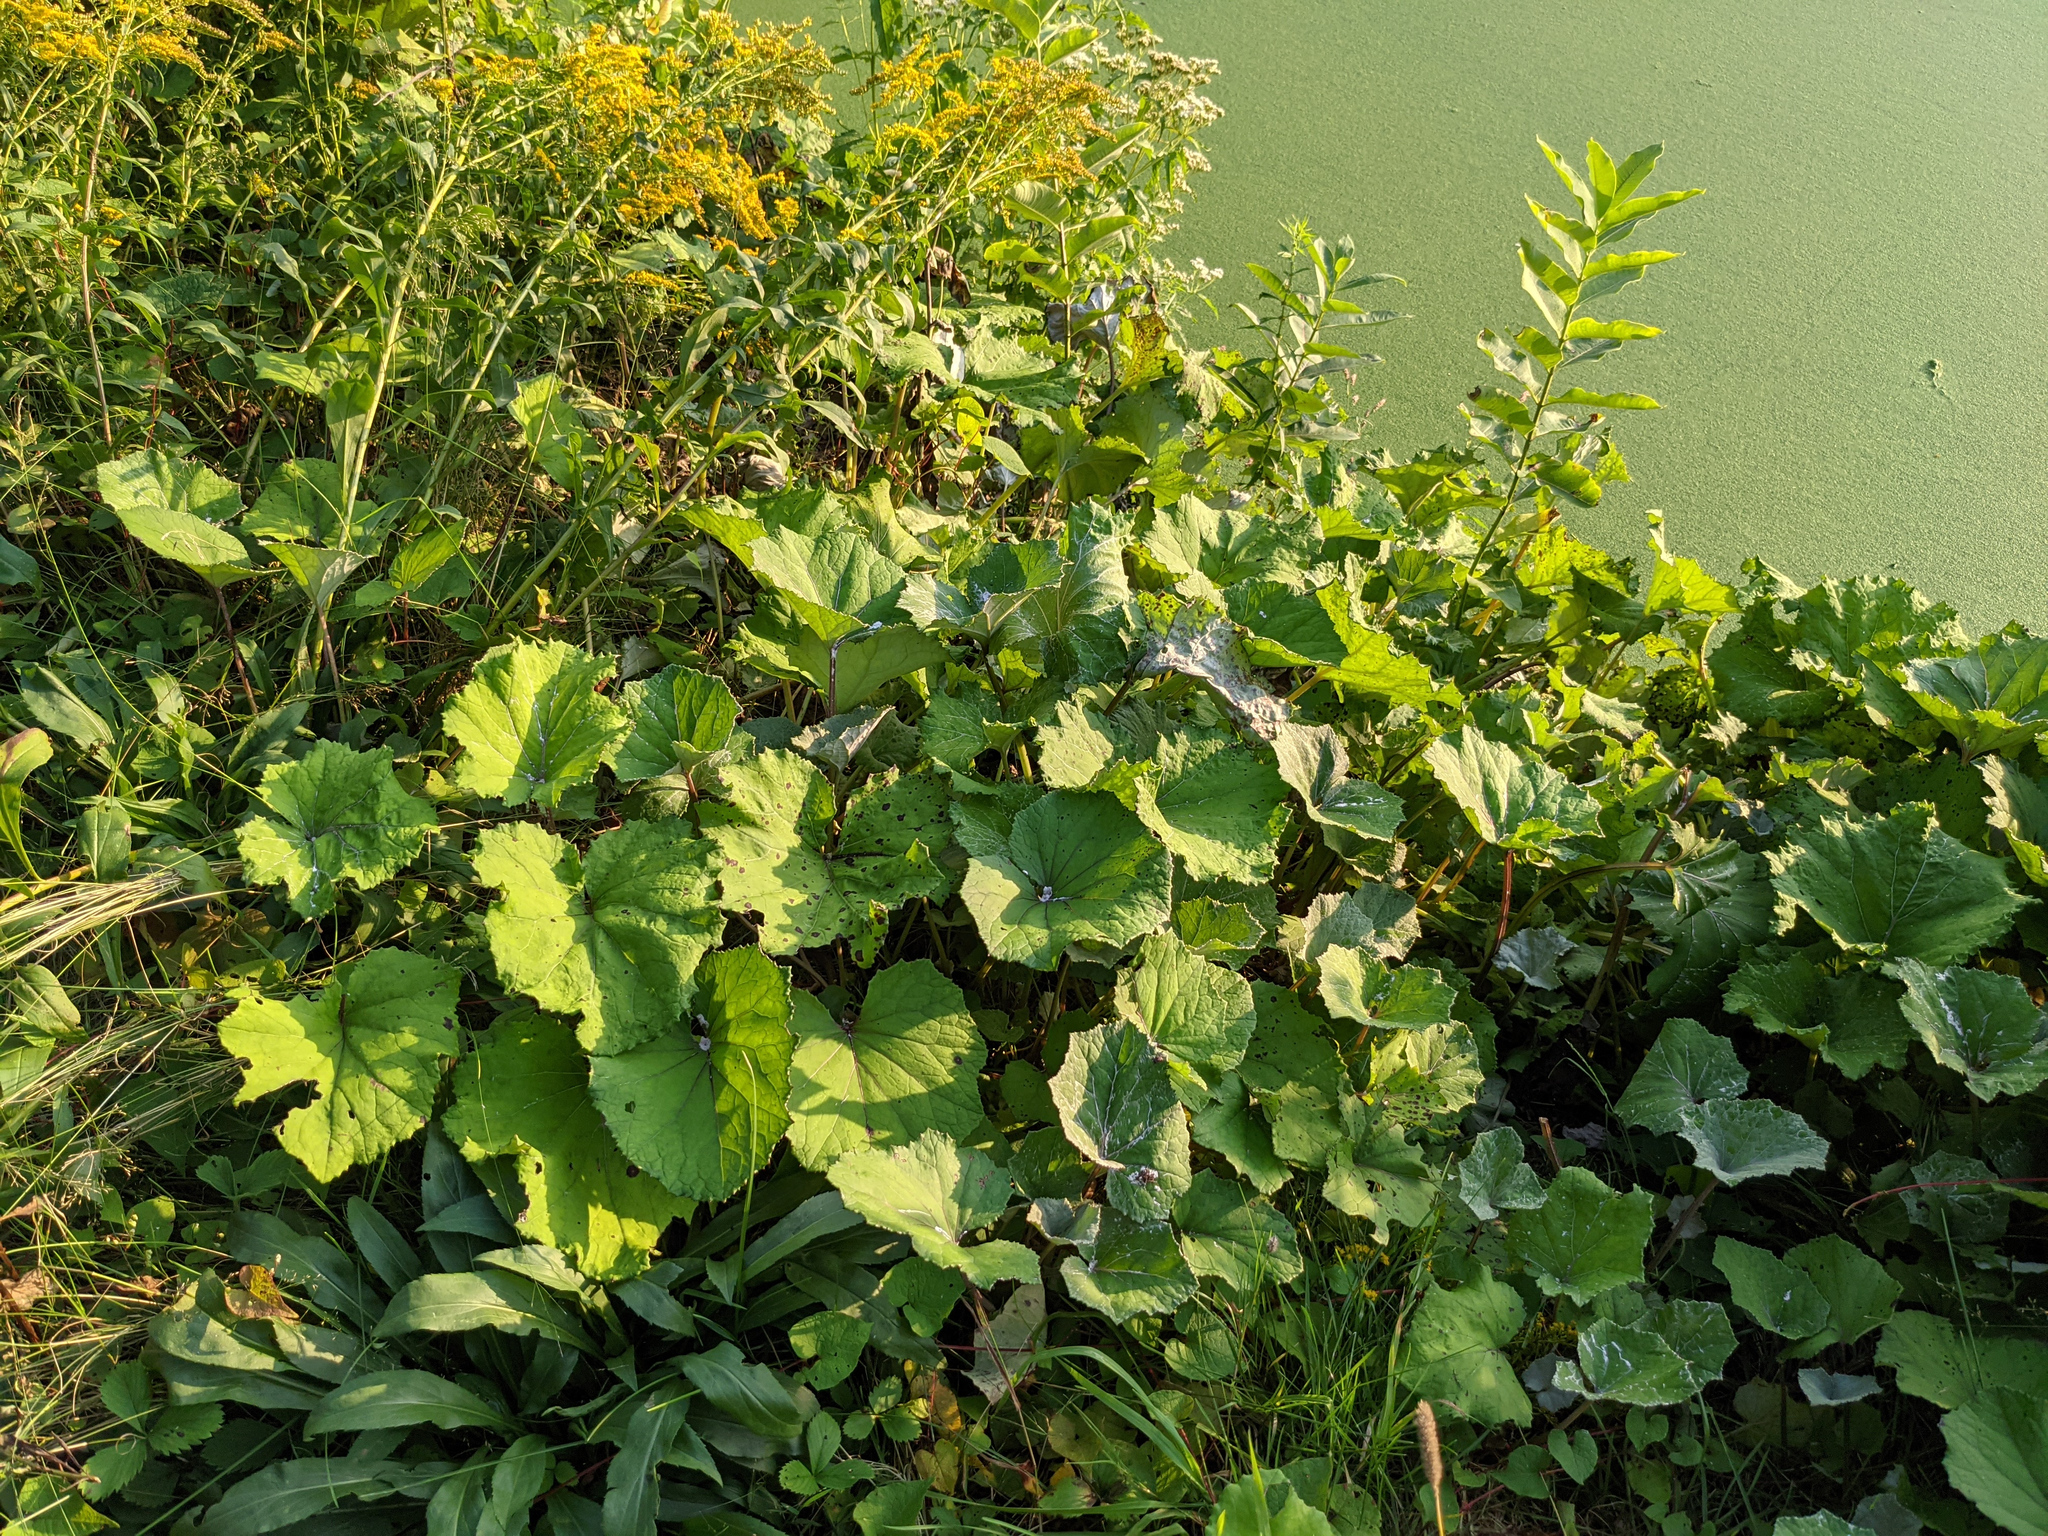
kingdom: Plantae
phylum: Tracheophyta
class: Magnoliopsida
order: Asterales
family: Asteraceae
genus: Tussilago
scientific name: Tussilago farfara
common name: Coltsfoot
